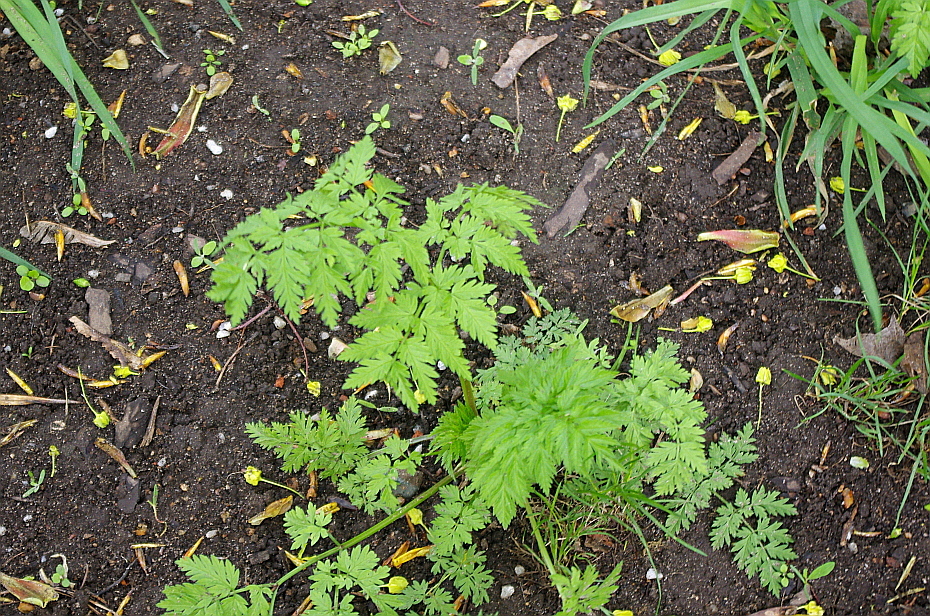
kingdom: Plantae
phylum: Tracheophyta
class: Magnoliopsida
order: Apiales
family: Apiaceae
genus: Anthriscus
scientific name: Anthriscus sylvestris
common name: Cow parsley
